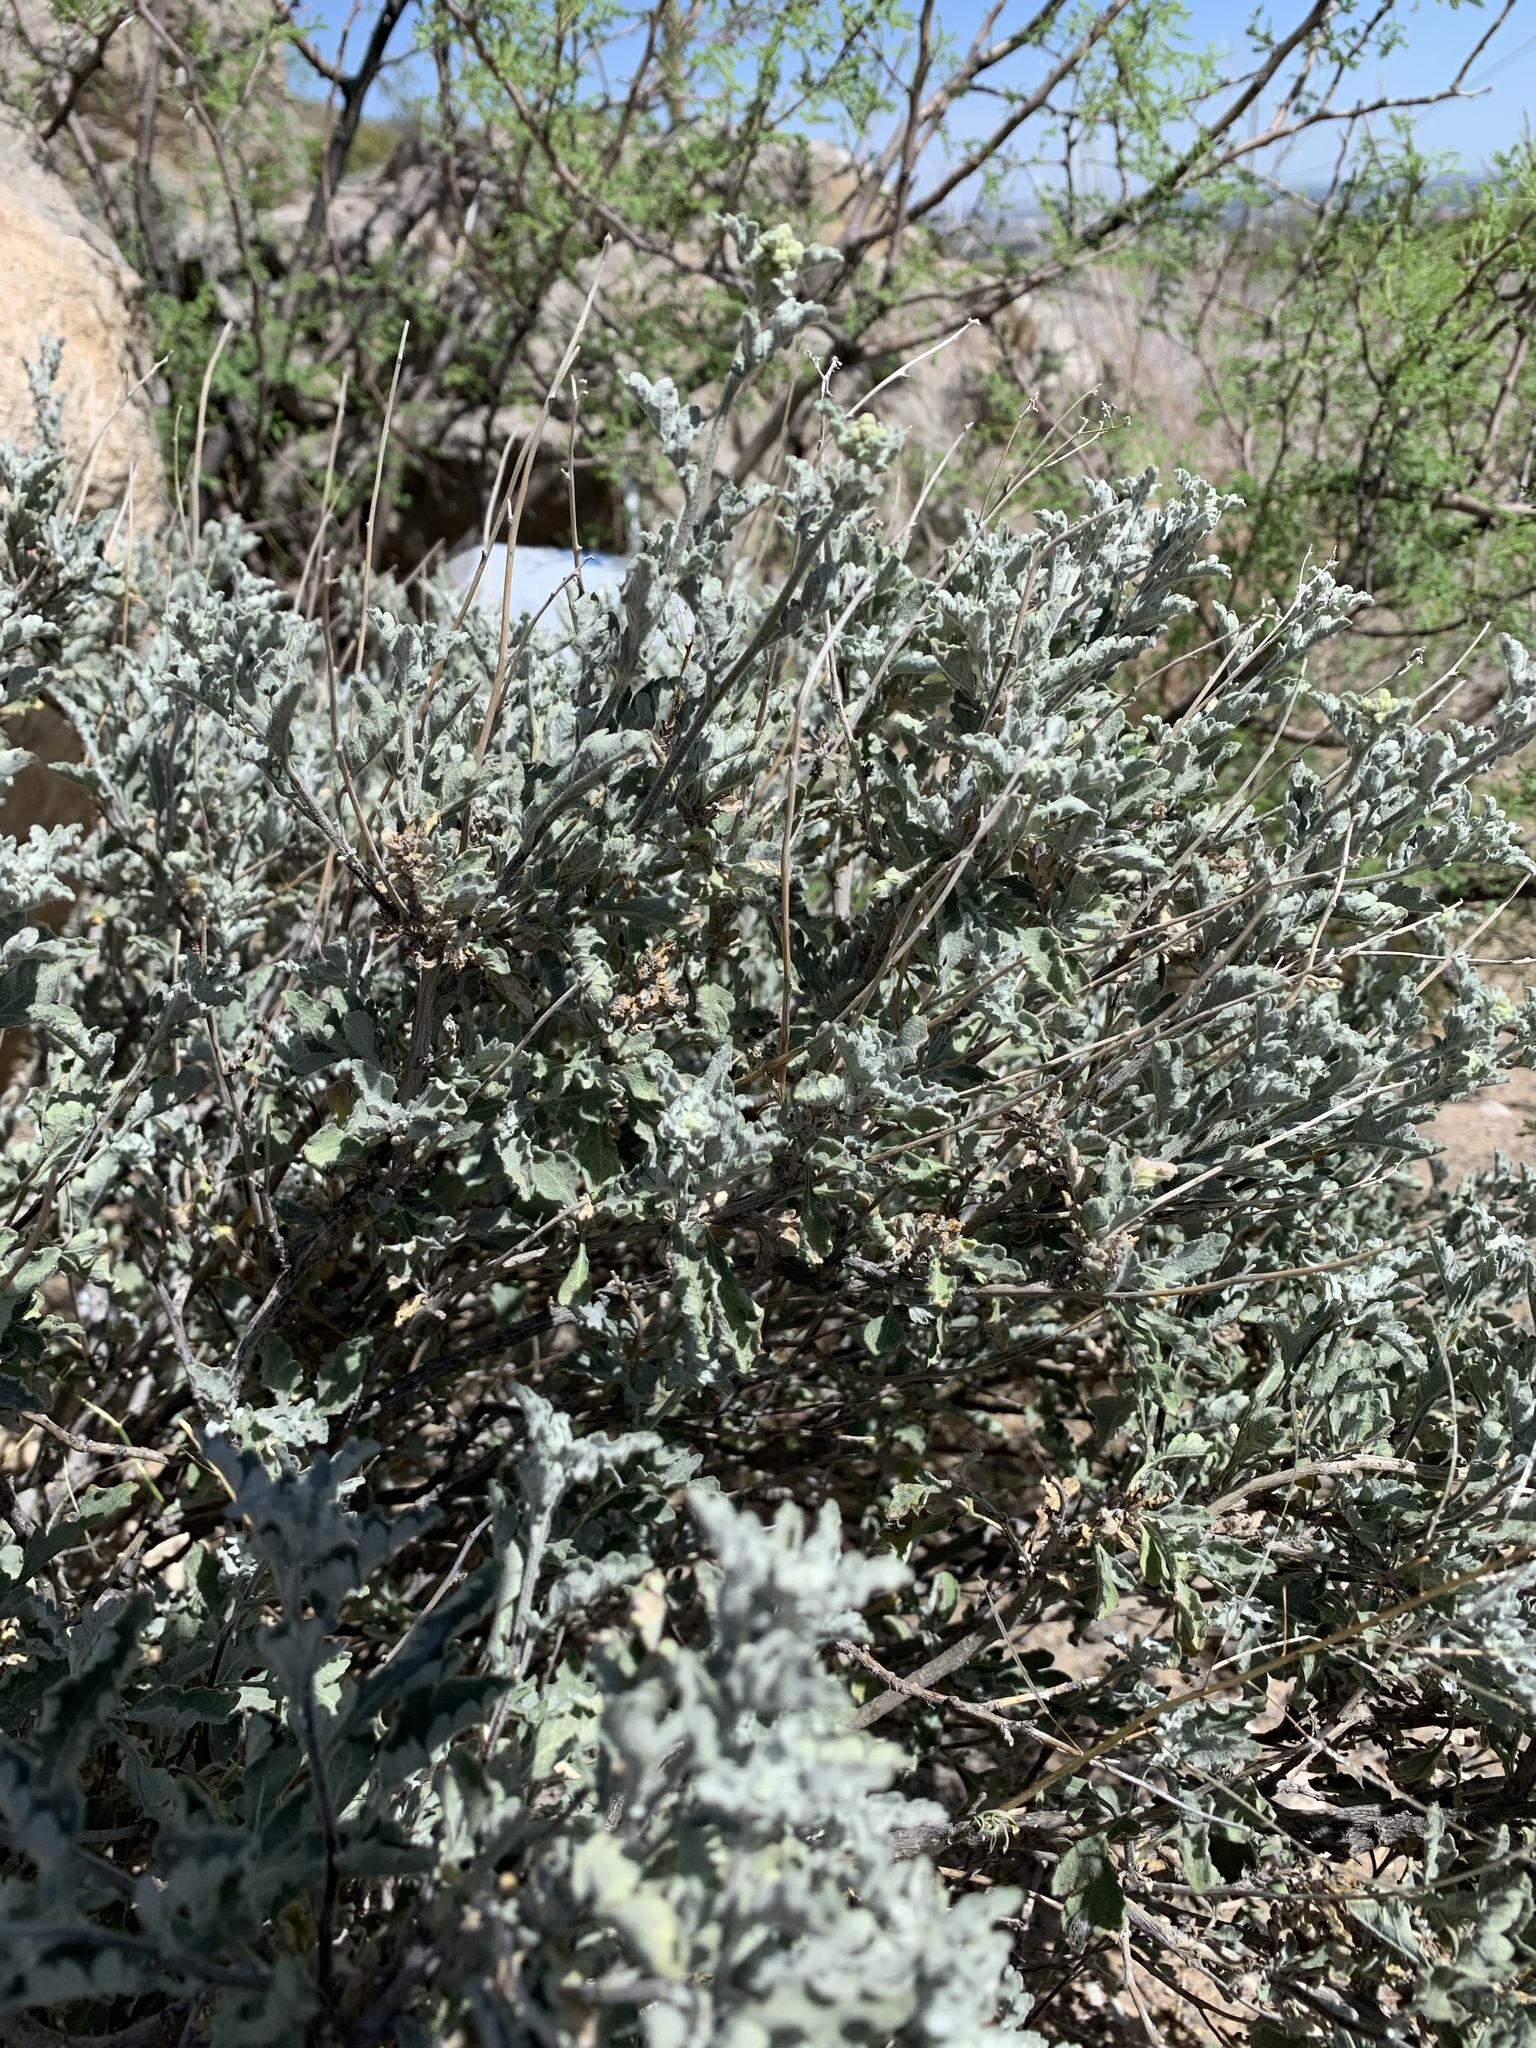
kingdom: Plantae
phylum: Tracheophyta
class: Magnoliopsida
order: Asterales
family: Asteraceae
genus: Parthenium
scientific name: Parthenium incanum
